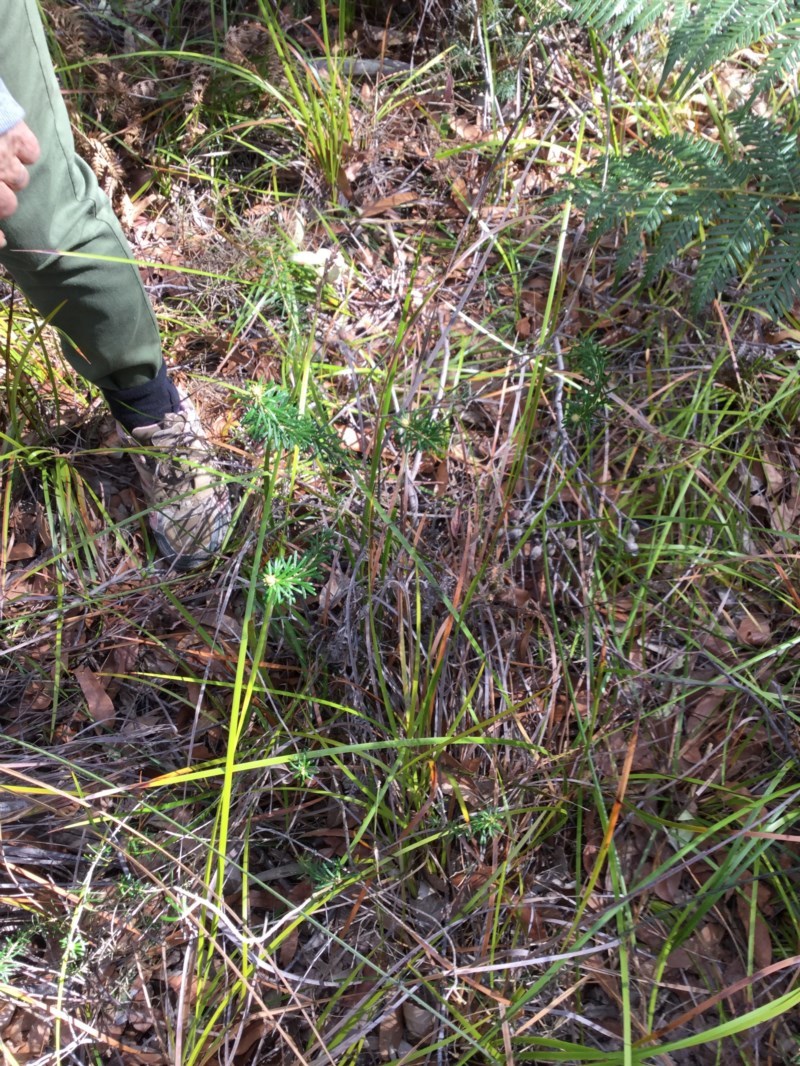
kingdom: Plantae
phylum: Tracheophyta
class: Magnoliopsida
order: Apiales
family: Araliaceae
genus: Astrotricha
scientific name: Astrotricha
